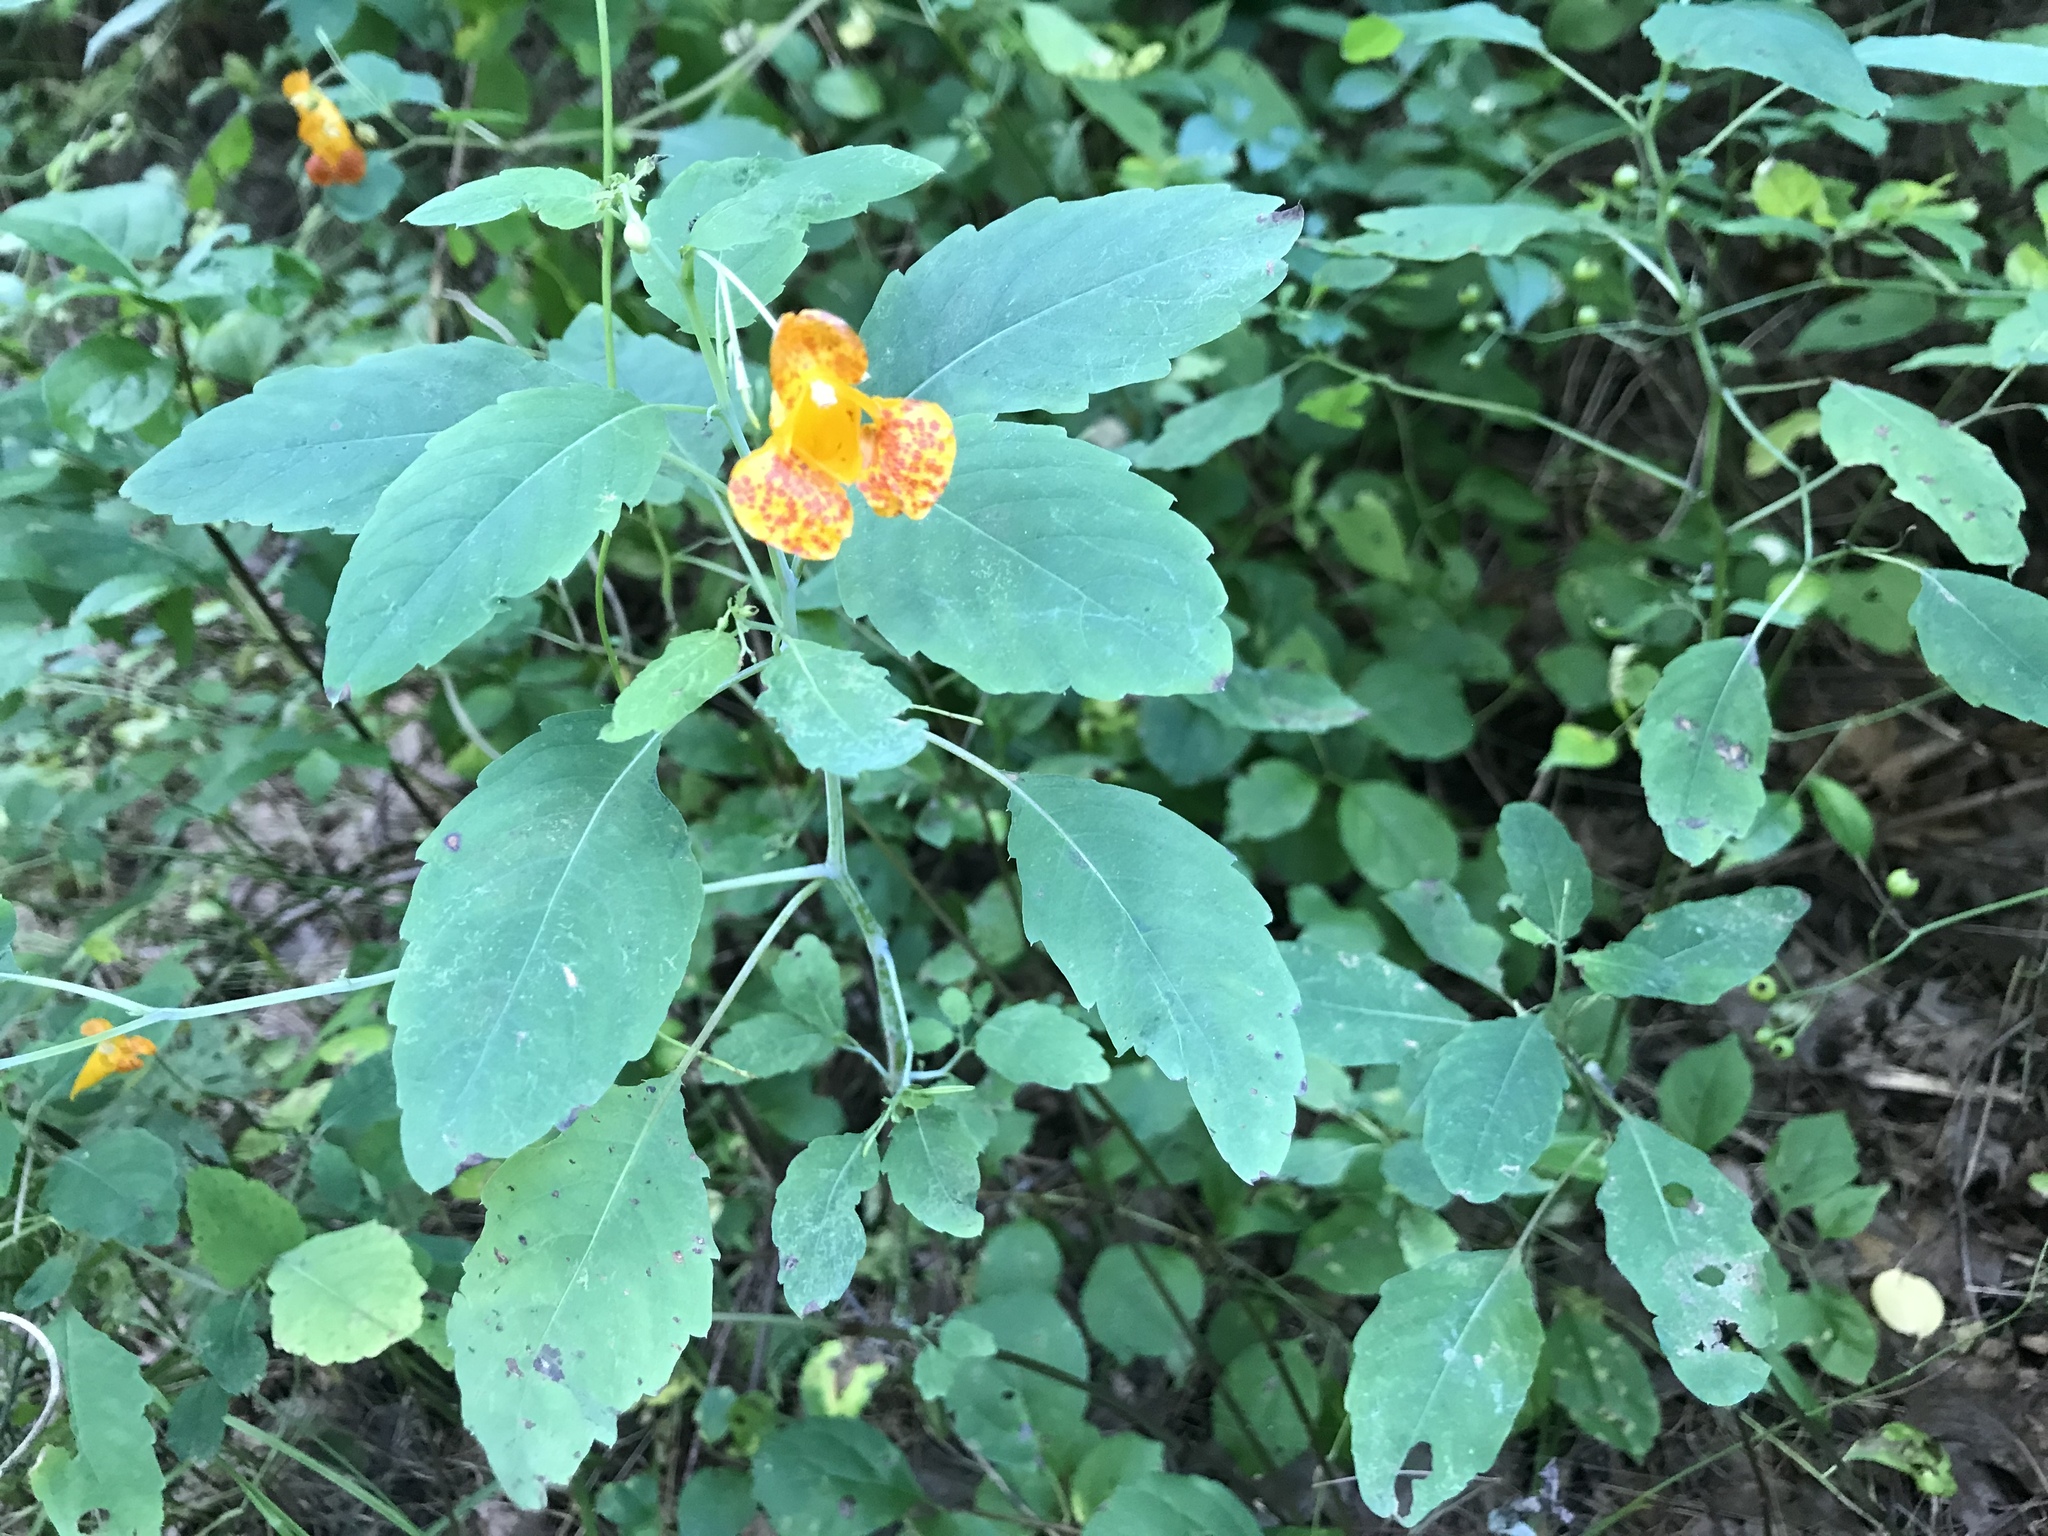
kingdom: Plantae
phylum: Tracheophyta
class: Magnoliopsida
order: Ericales
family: Balsaminaceae
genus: Impatiens
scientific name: Impatiens capensis
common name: Orange balsam
